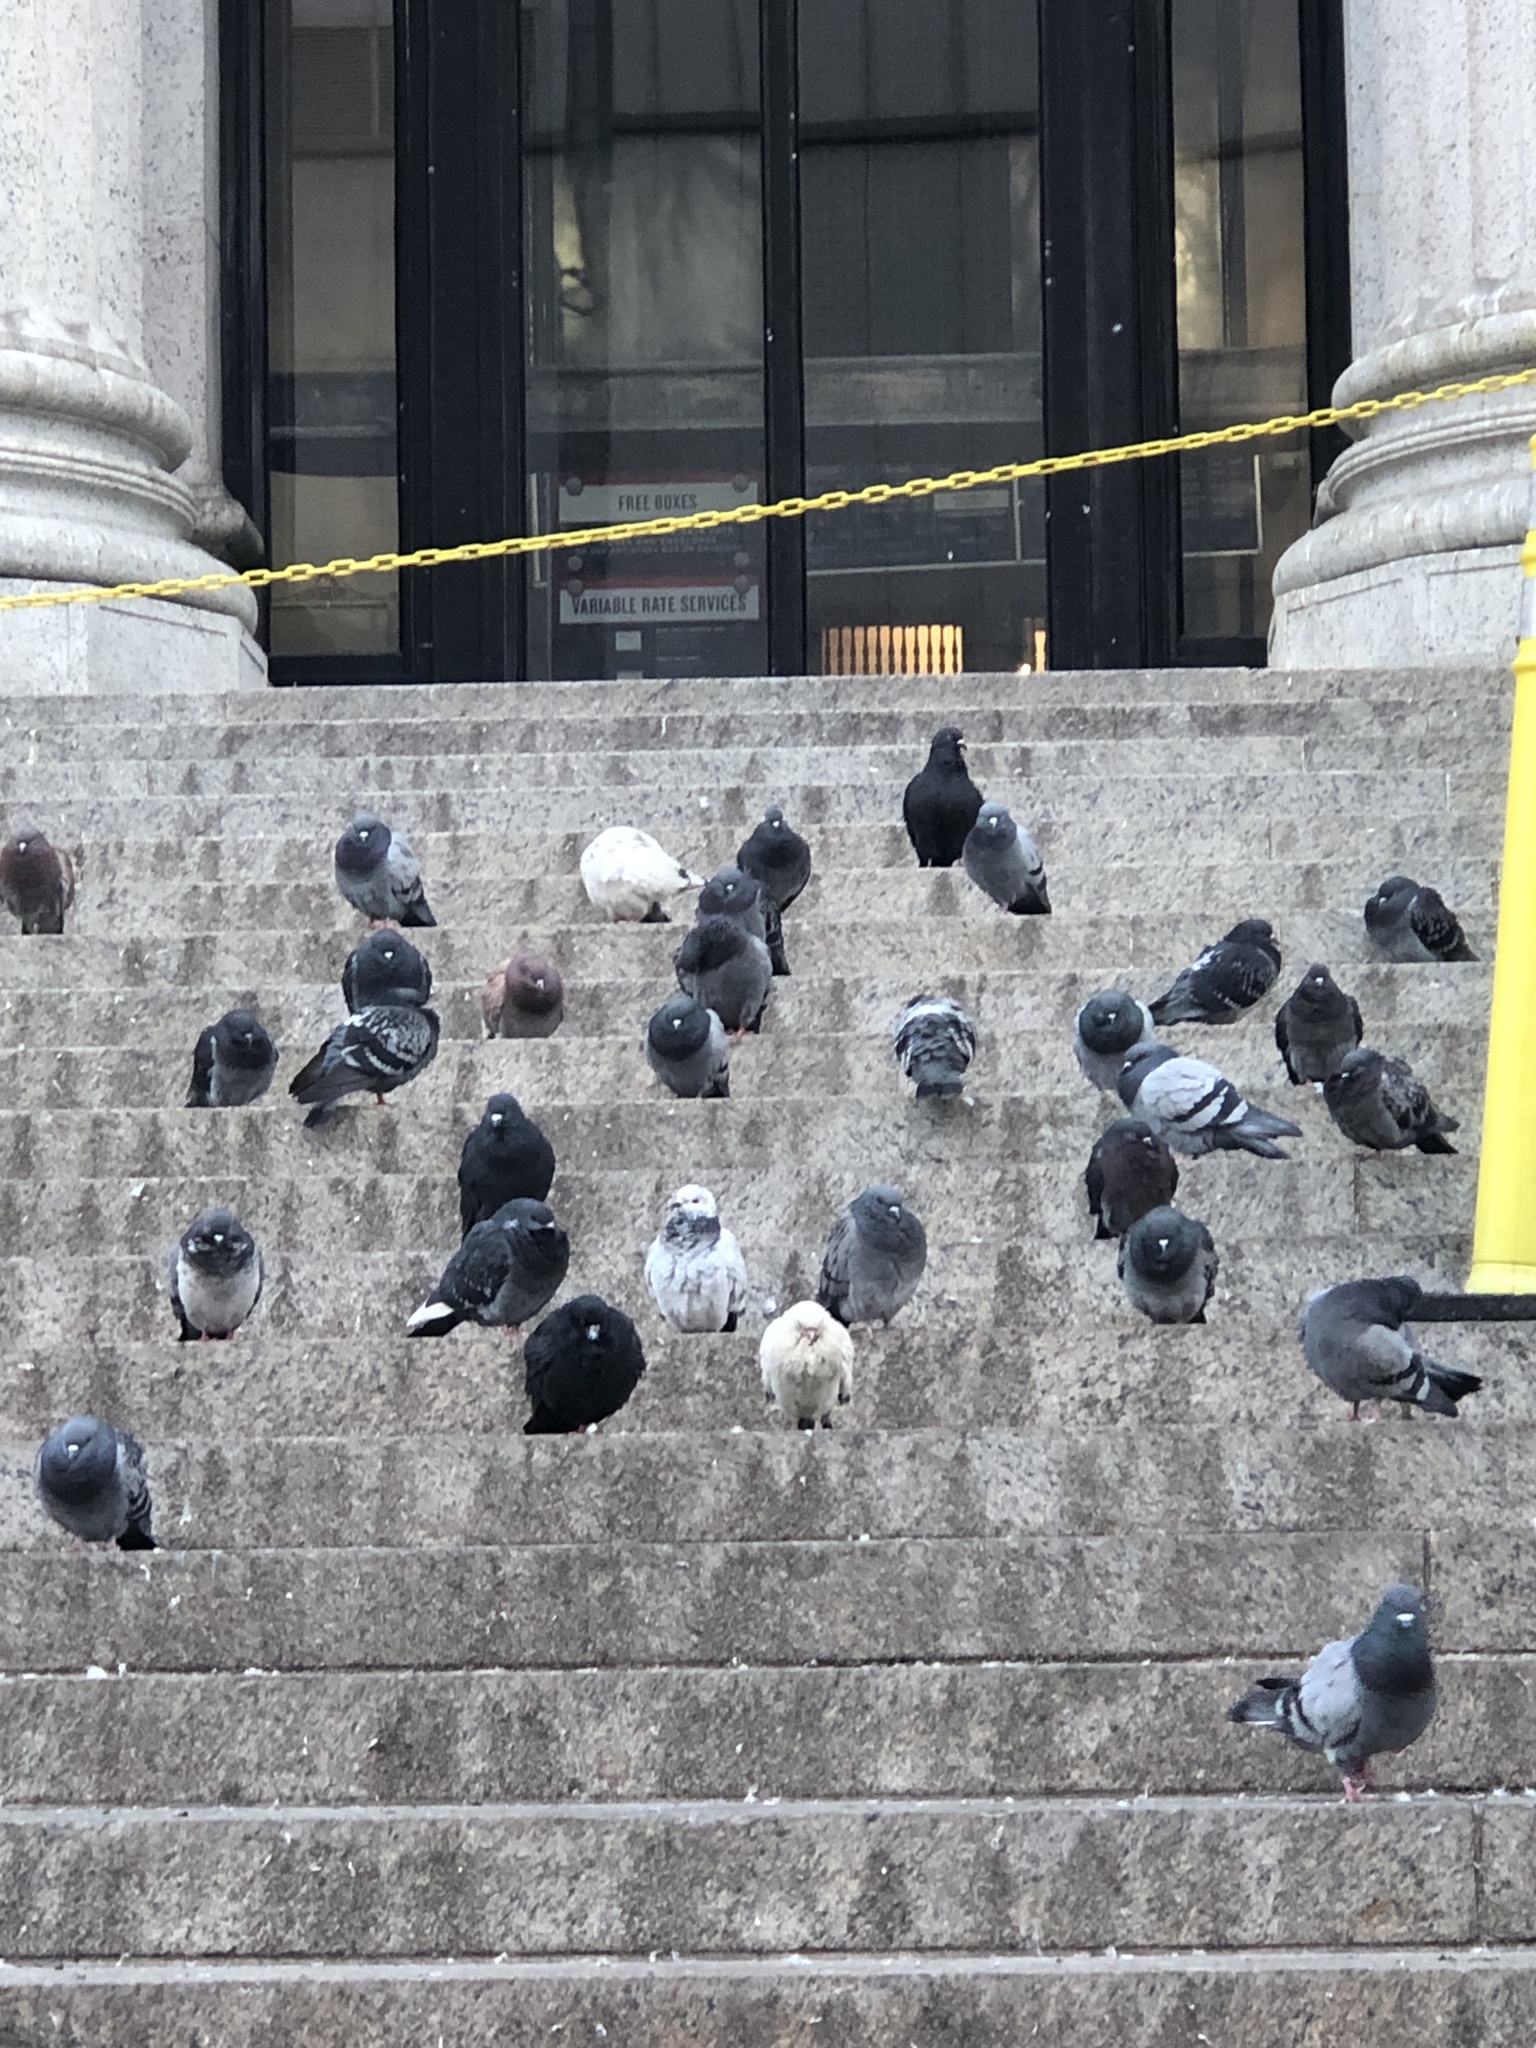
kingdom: Animalia
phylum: Chordata
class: Aves
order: Columbiformes
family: Columbidae
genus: Columba
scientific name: Columba livia
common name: Rock pigeon
